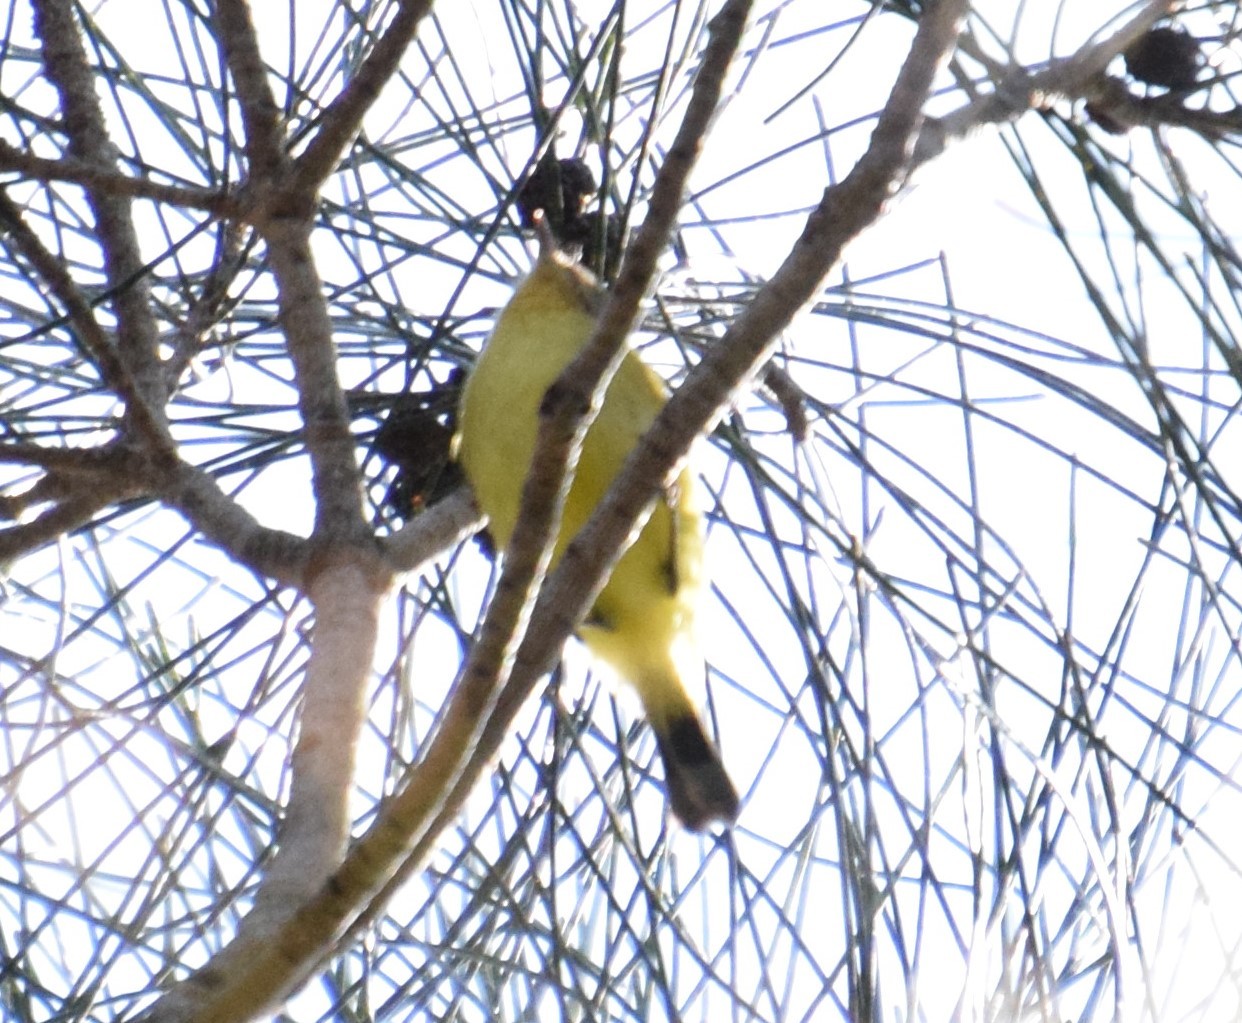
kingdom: Animalia
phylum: Chordata
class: Aves
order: Passeriformes
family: Acanthizidae
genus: Acanthiza
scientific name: Acanthiza nana
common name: Yellow thornbill
